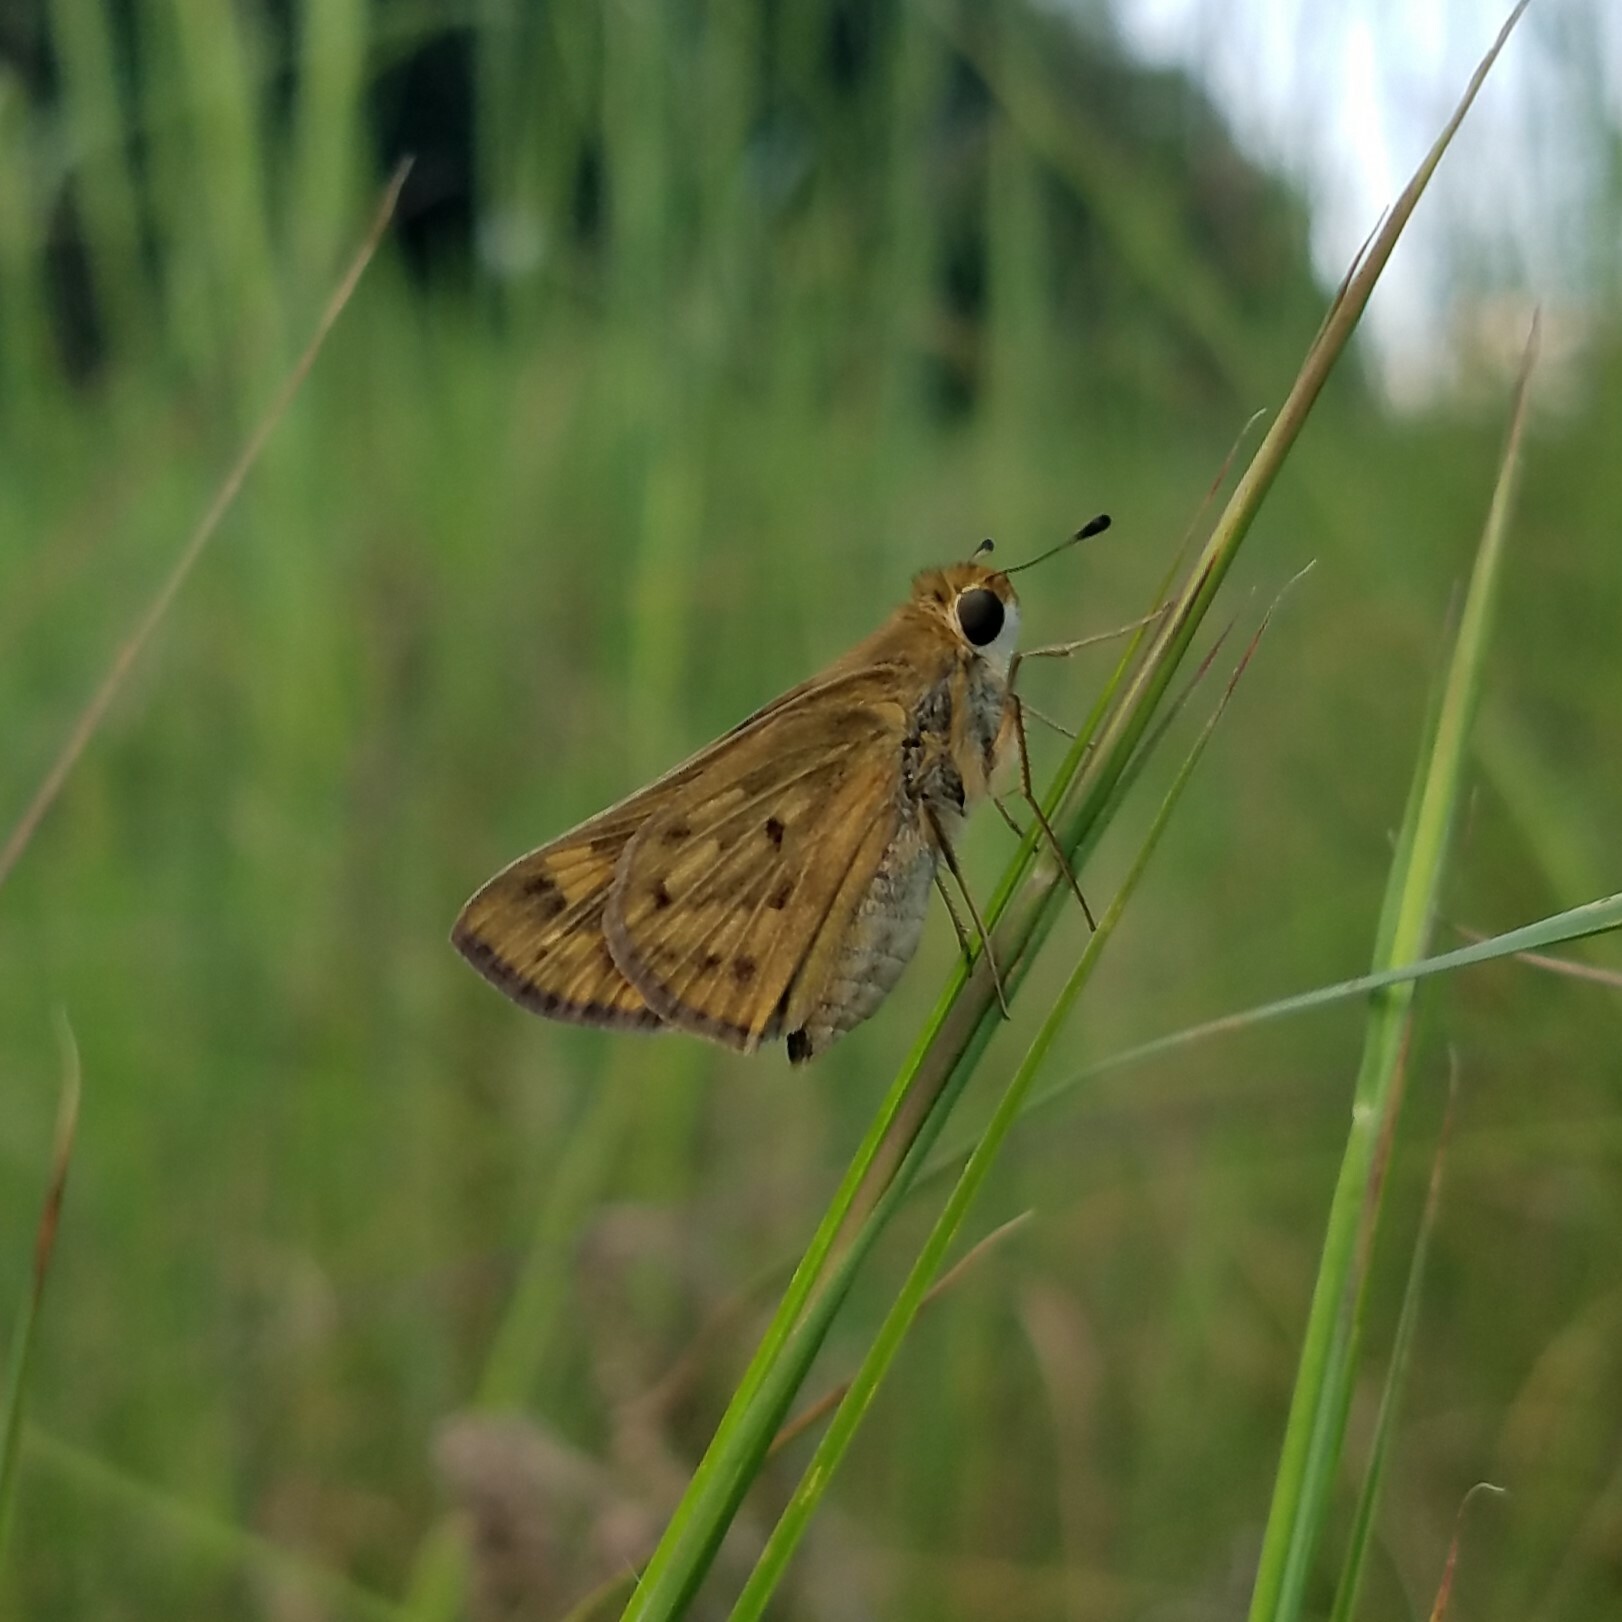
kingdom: Animalia
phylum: Arthropoda
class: Insecta
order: Lepidoptera
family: Hesperiidae
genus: Hylephila
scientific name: Hylephila phyleus
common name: Fiery skipper
